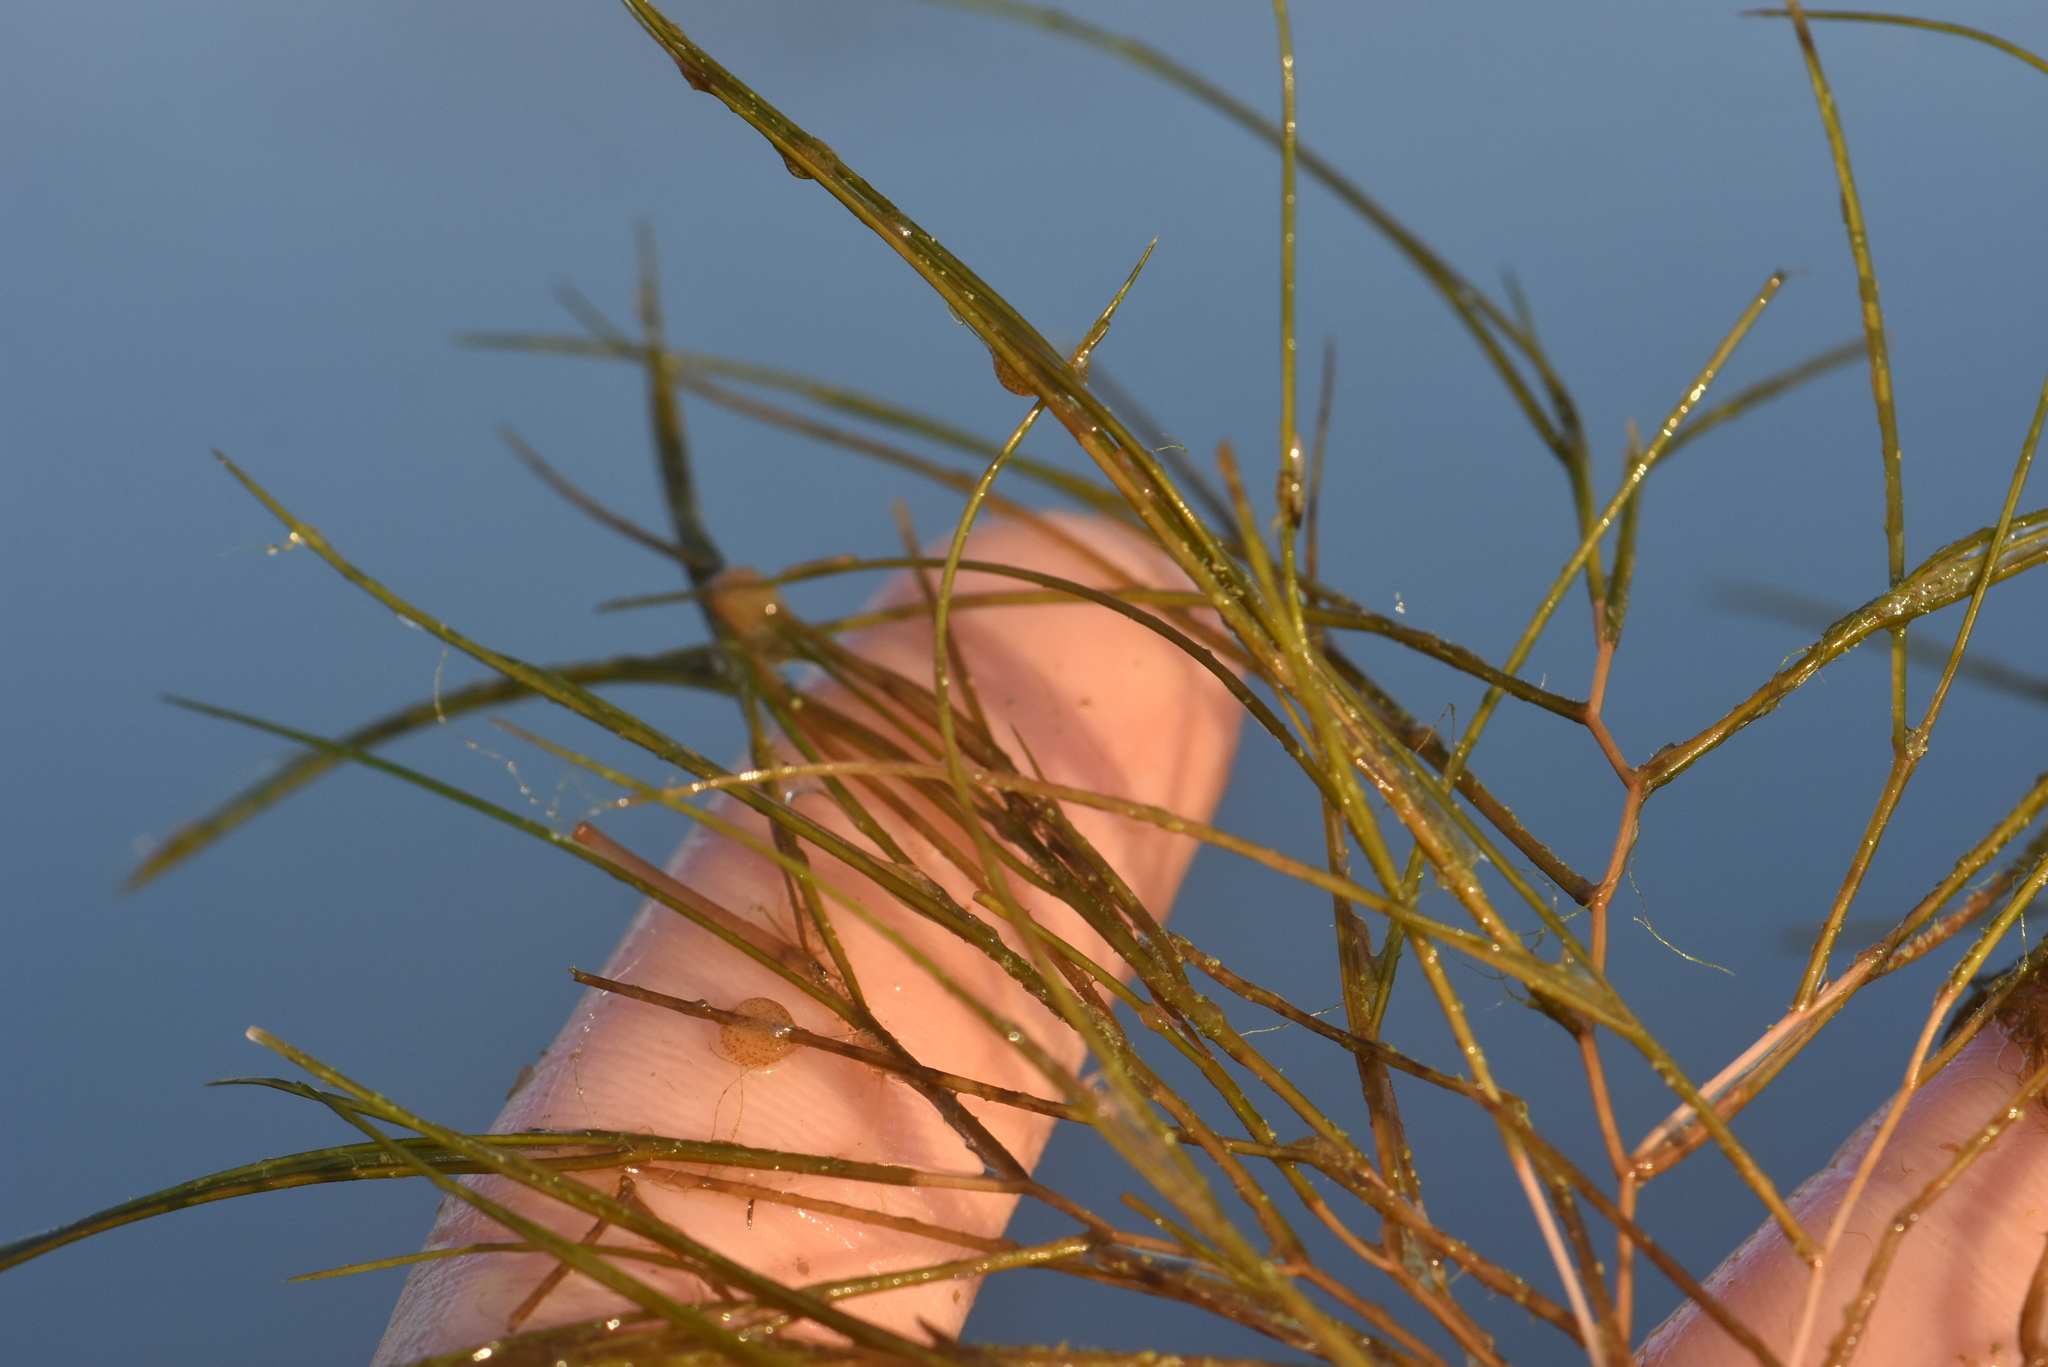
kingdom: Plantae
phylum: Tracheophyta
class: Liliopsida
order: Alismatales
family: Potamogetonaceae
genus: Stuckenia
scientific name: Stuckenia pectinata
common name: Sago pondweed
